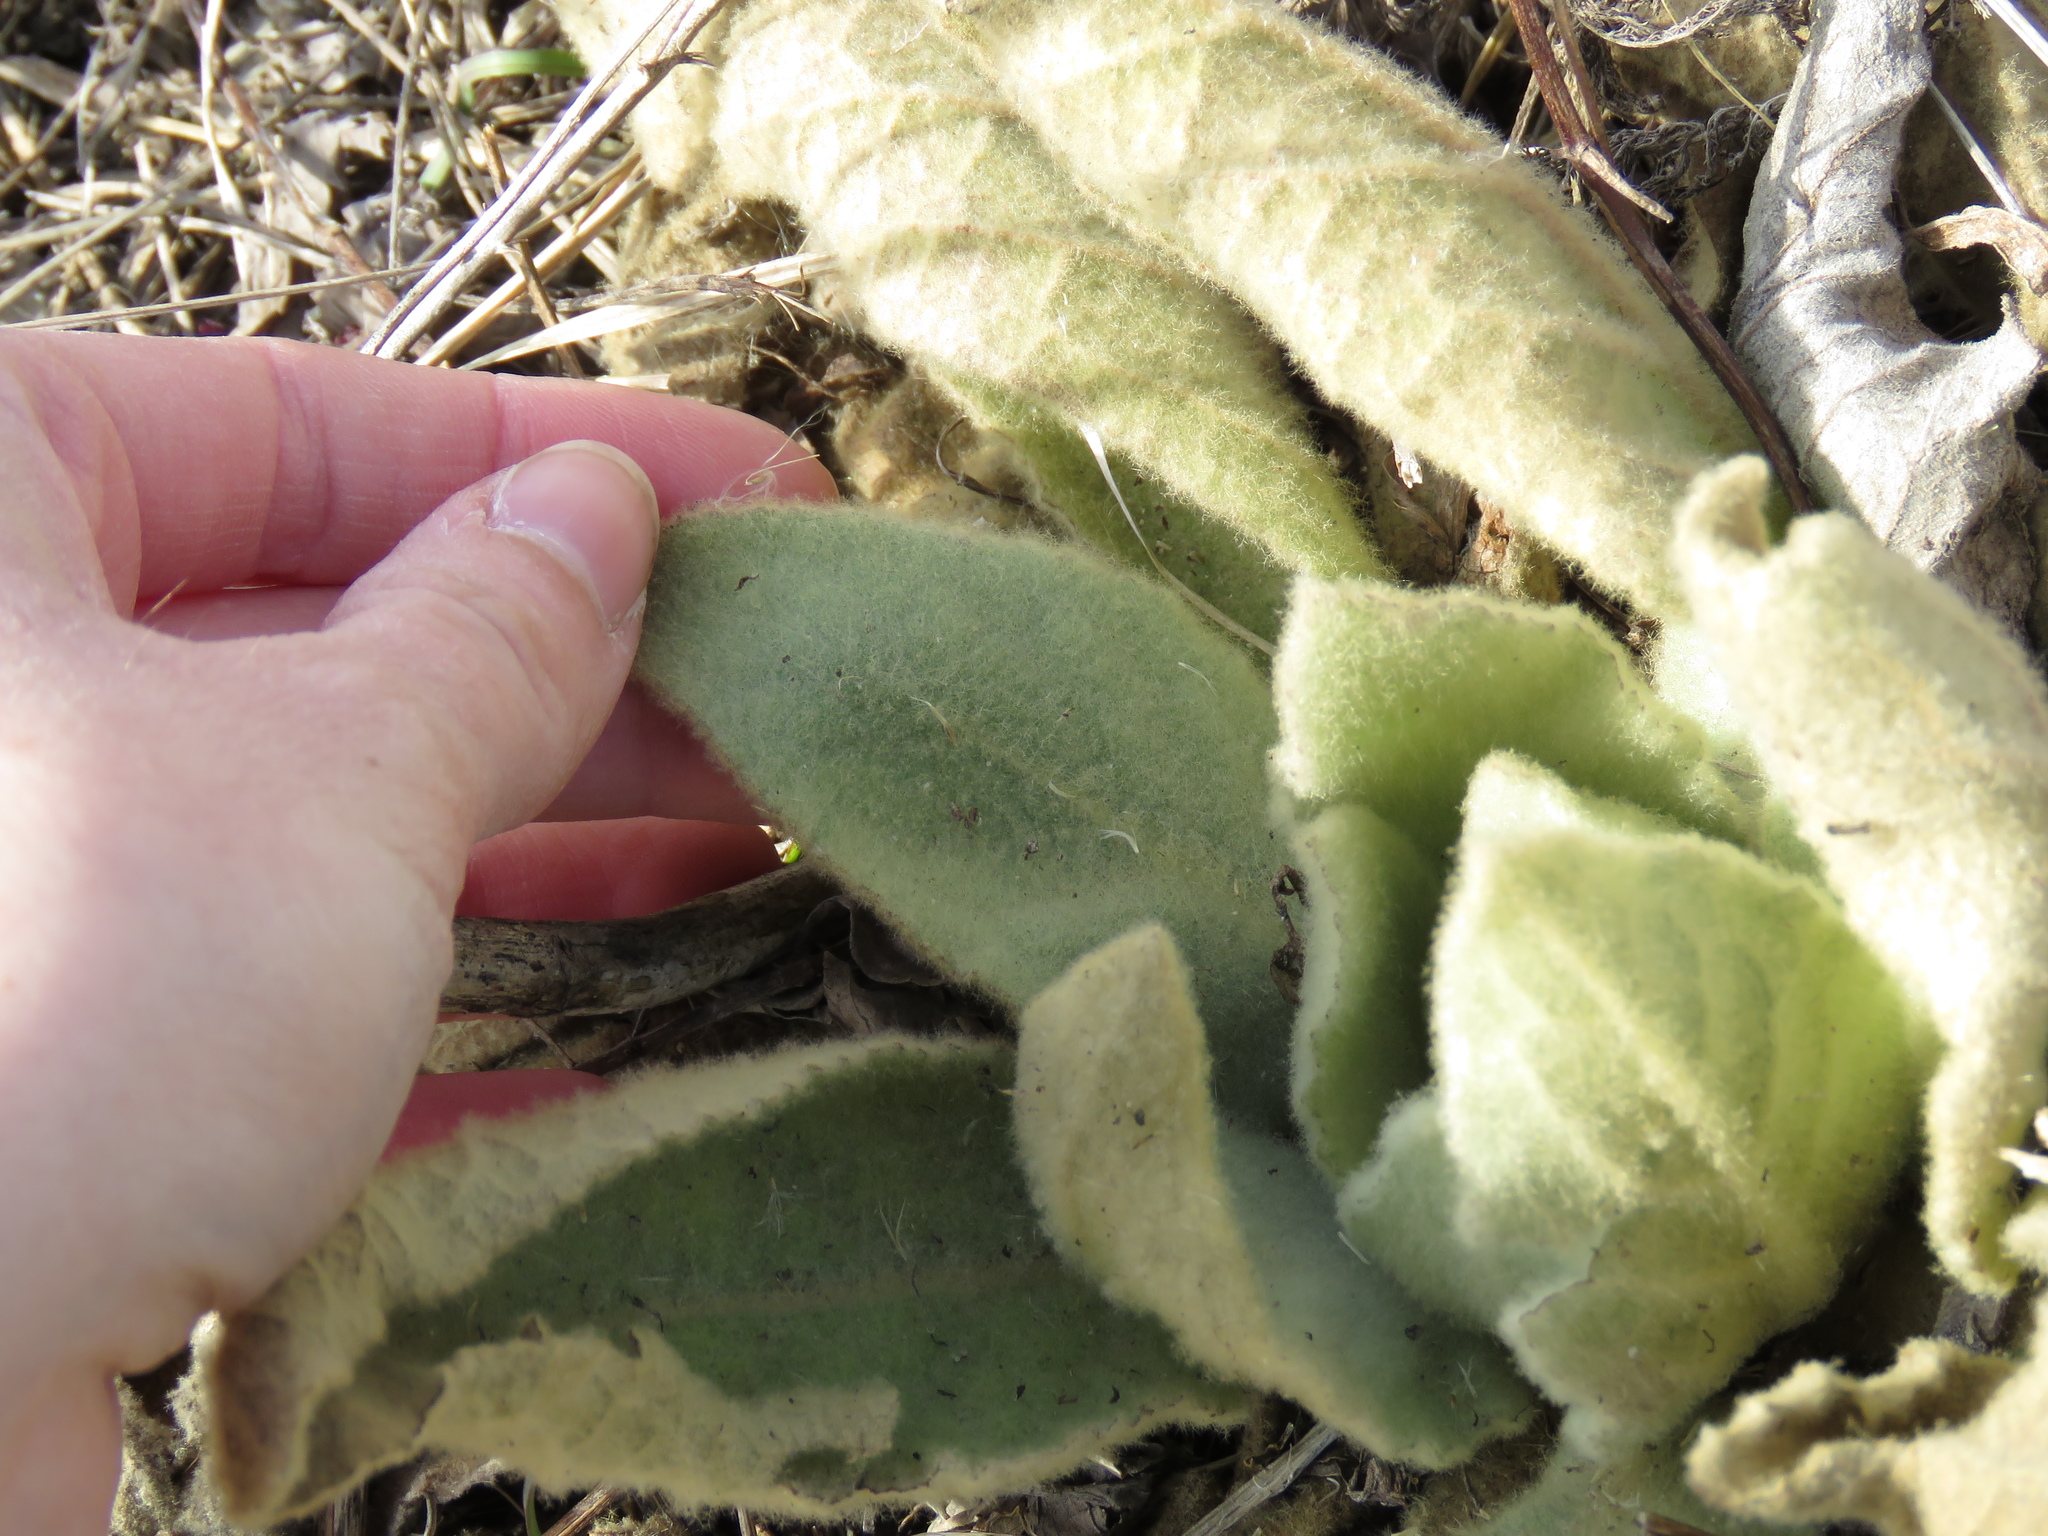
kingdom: Plantae
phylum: Tracheophyta
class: Magnoliopsida
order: Lamiales
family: Scrophulariaceae
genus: Verbascum
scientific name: Verbascum thapsus
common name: Common mullein
